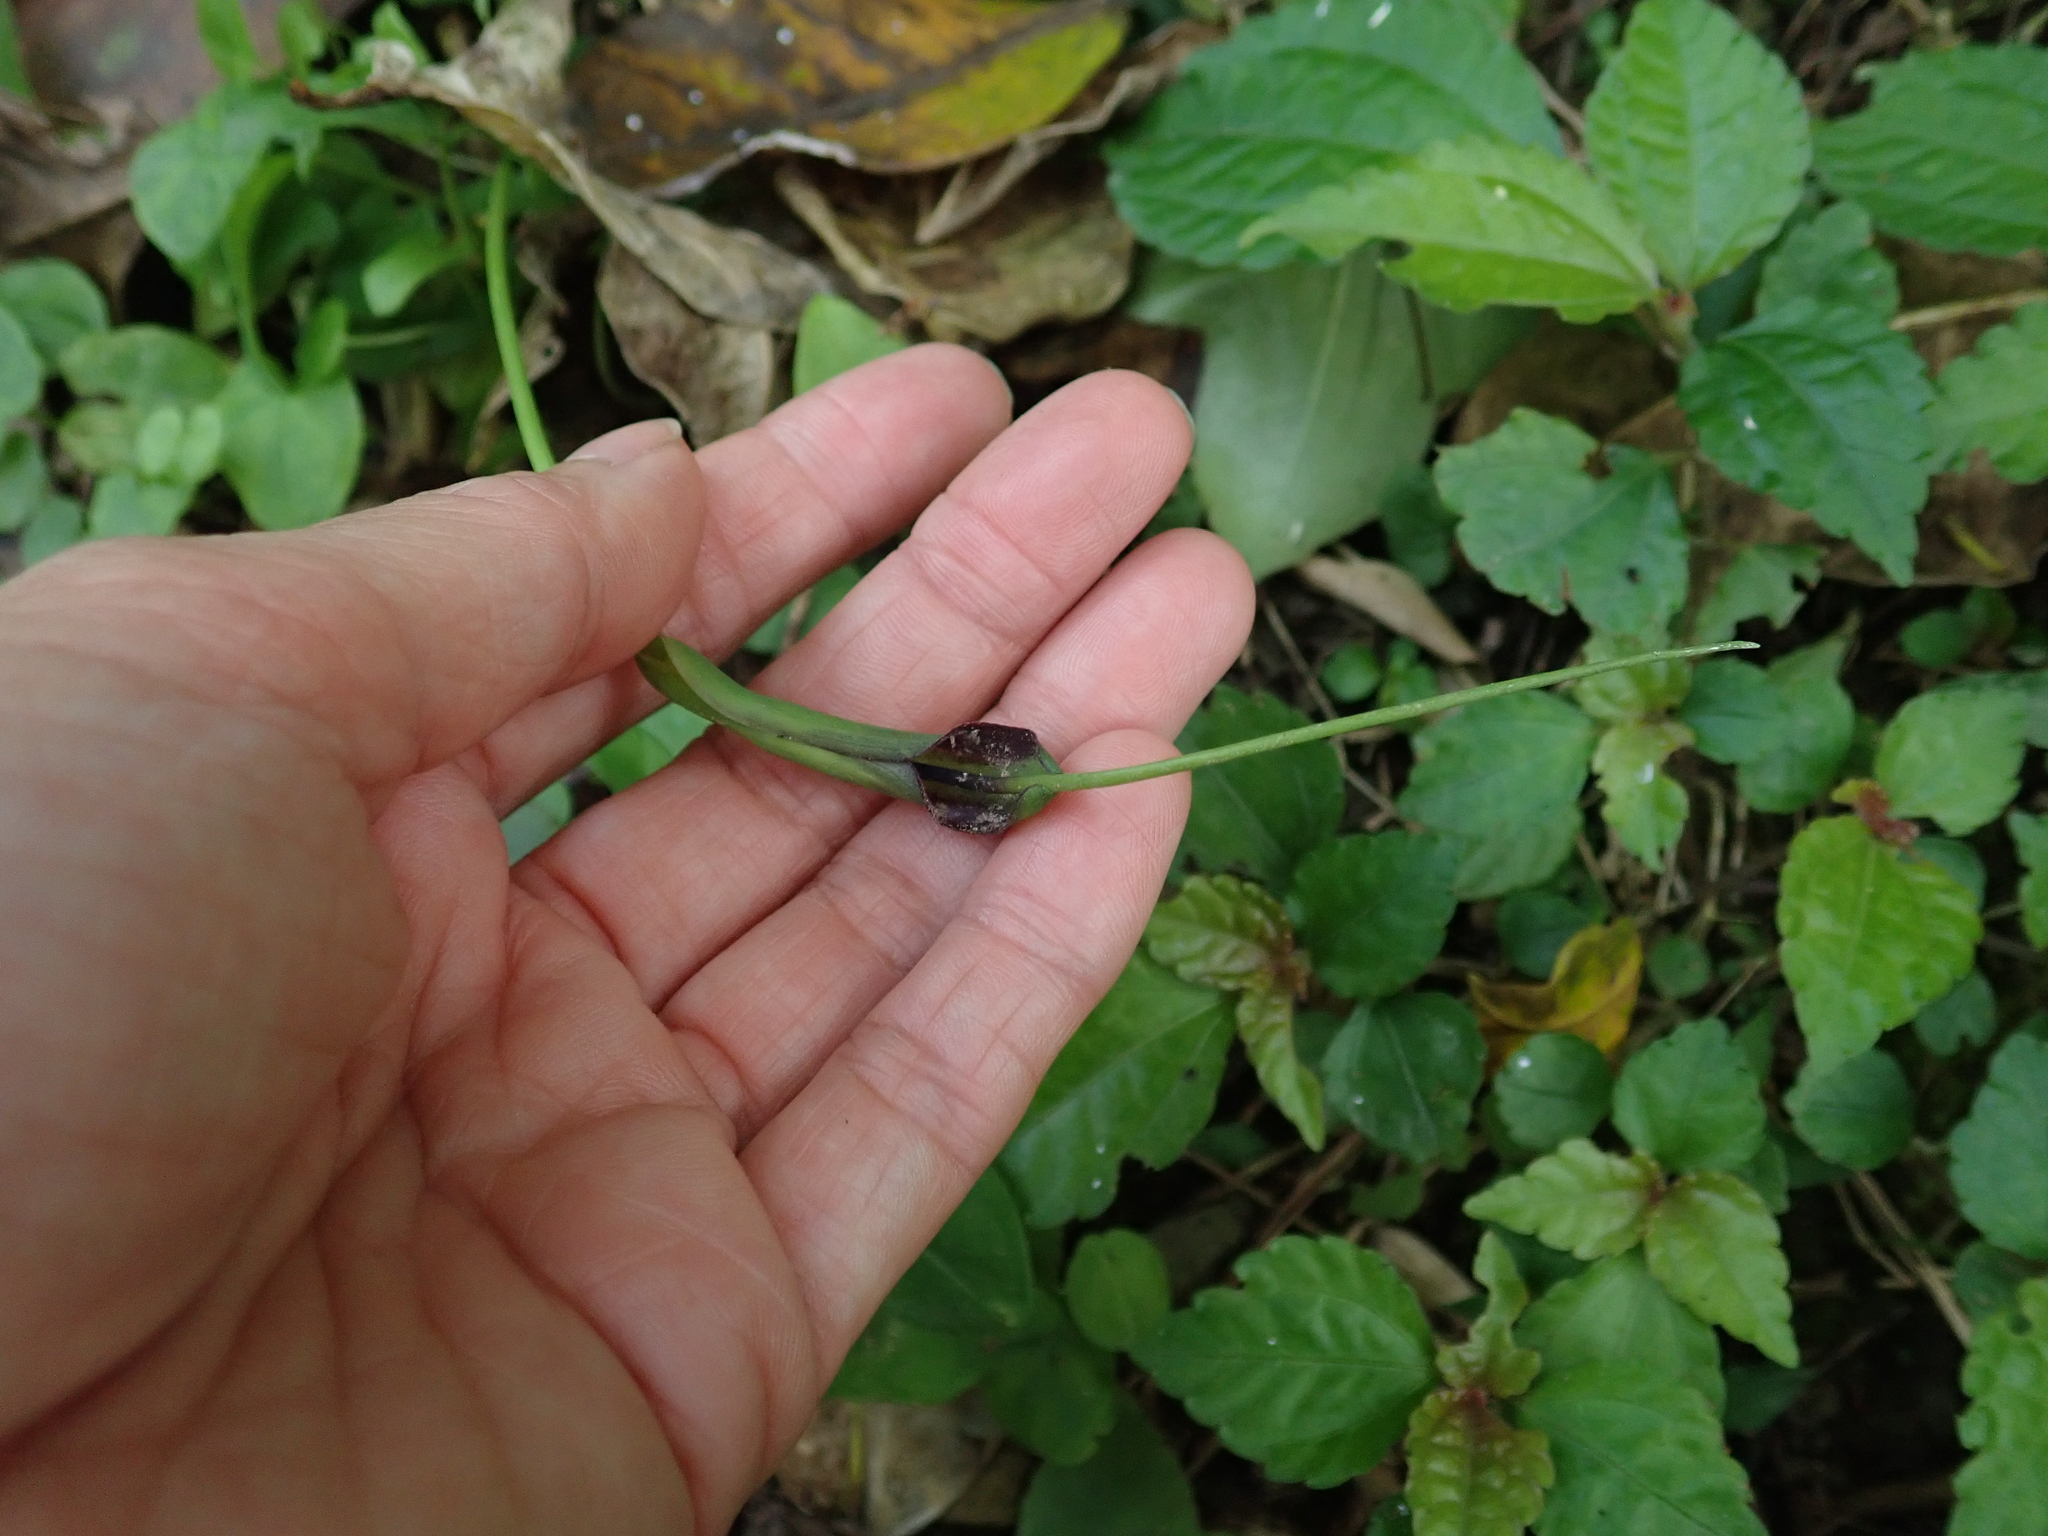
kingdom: Plantae
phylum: Tracheophyta
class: Liliopsida
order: Alismatales
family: Araceae
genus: Pinellia
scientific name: Pinellia ternata
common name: Pinellia
